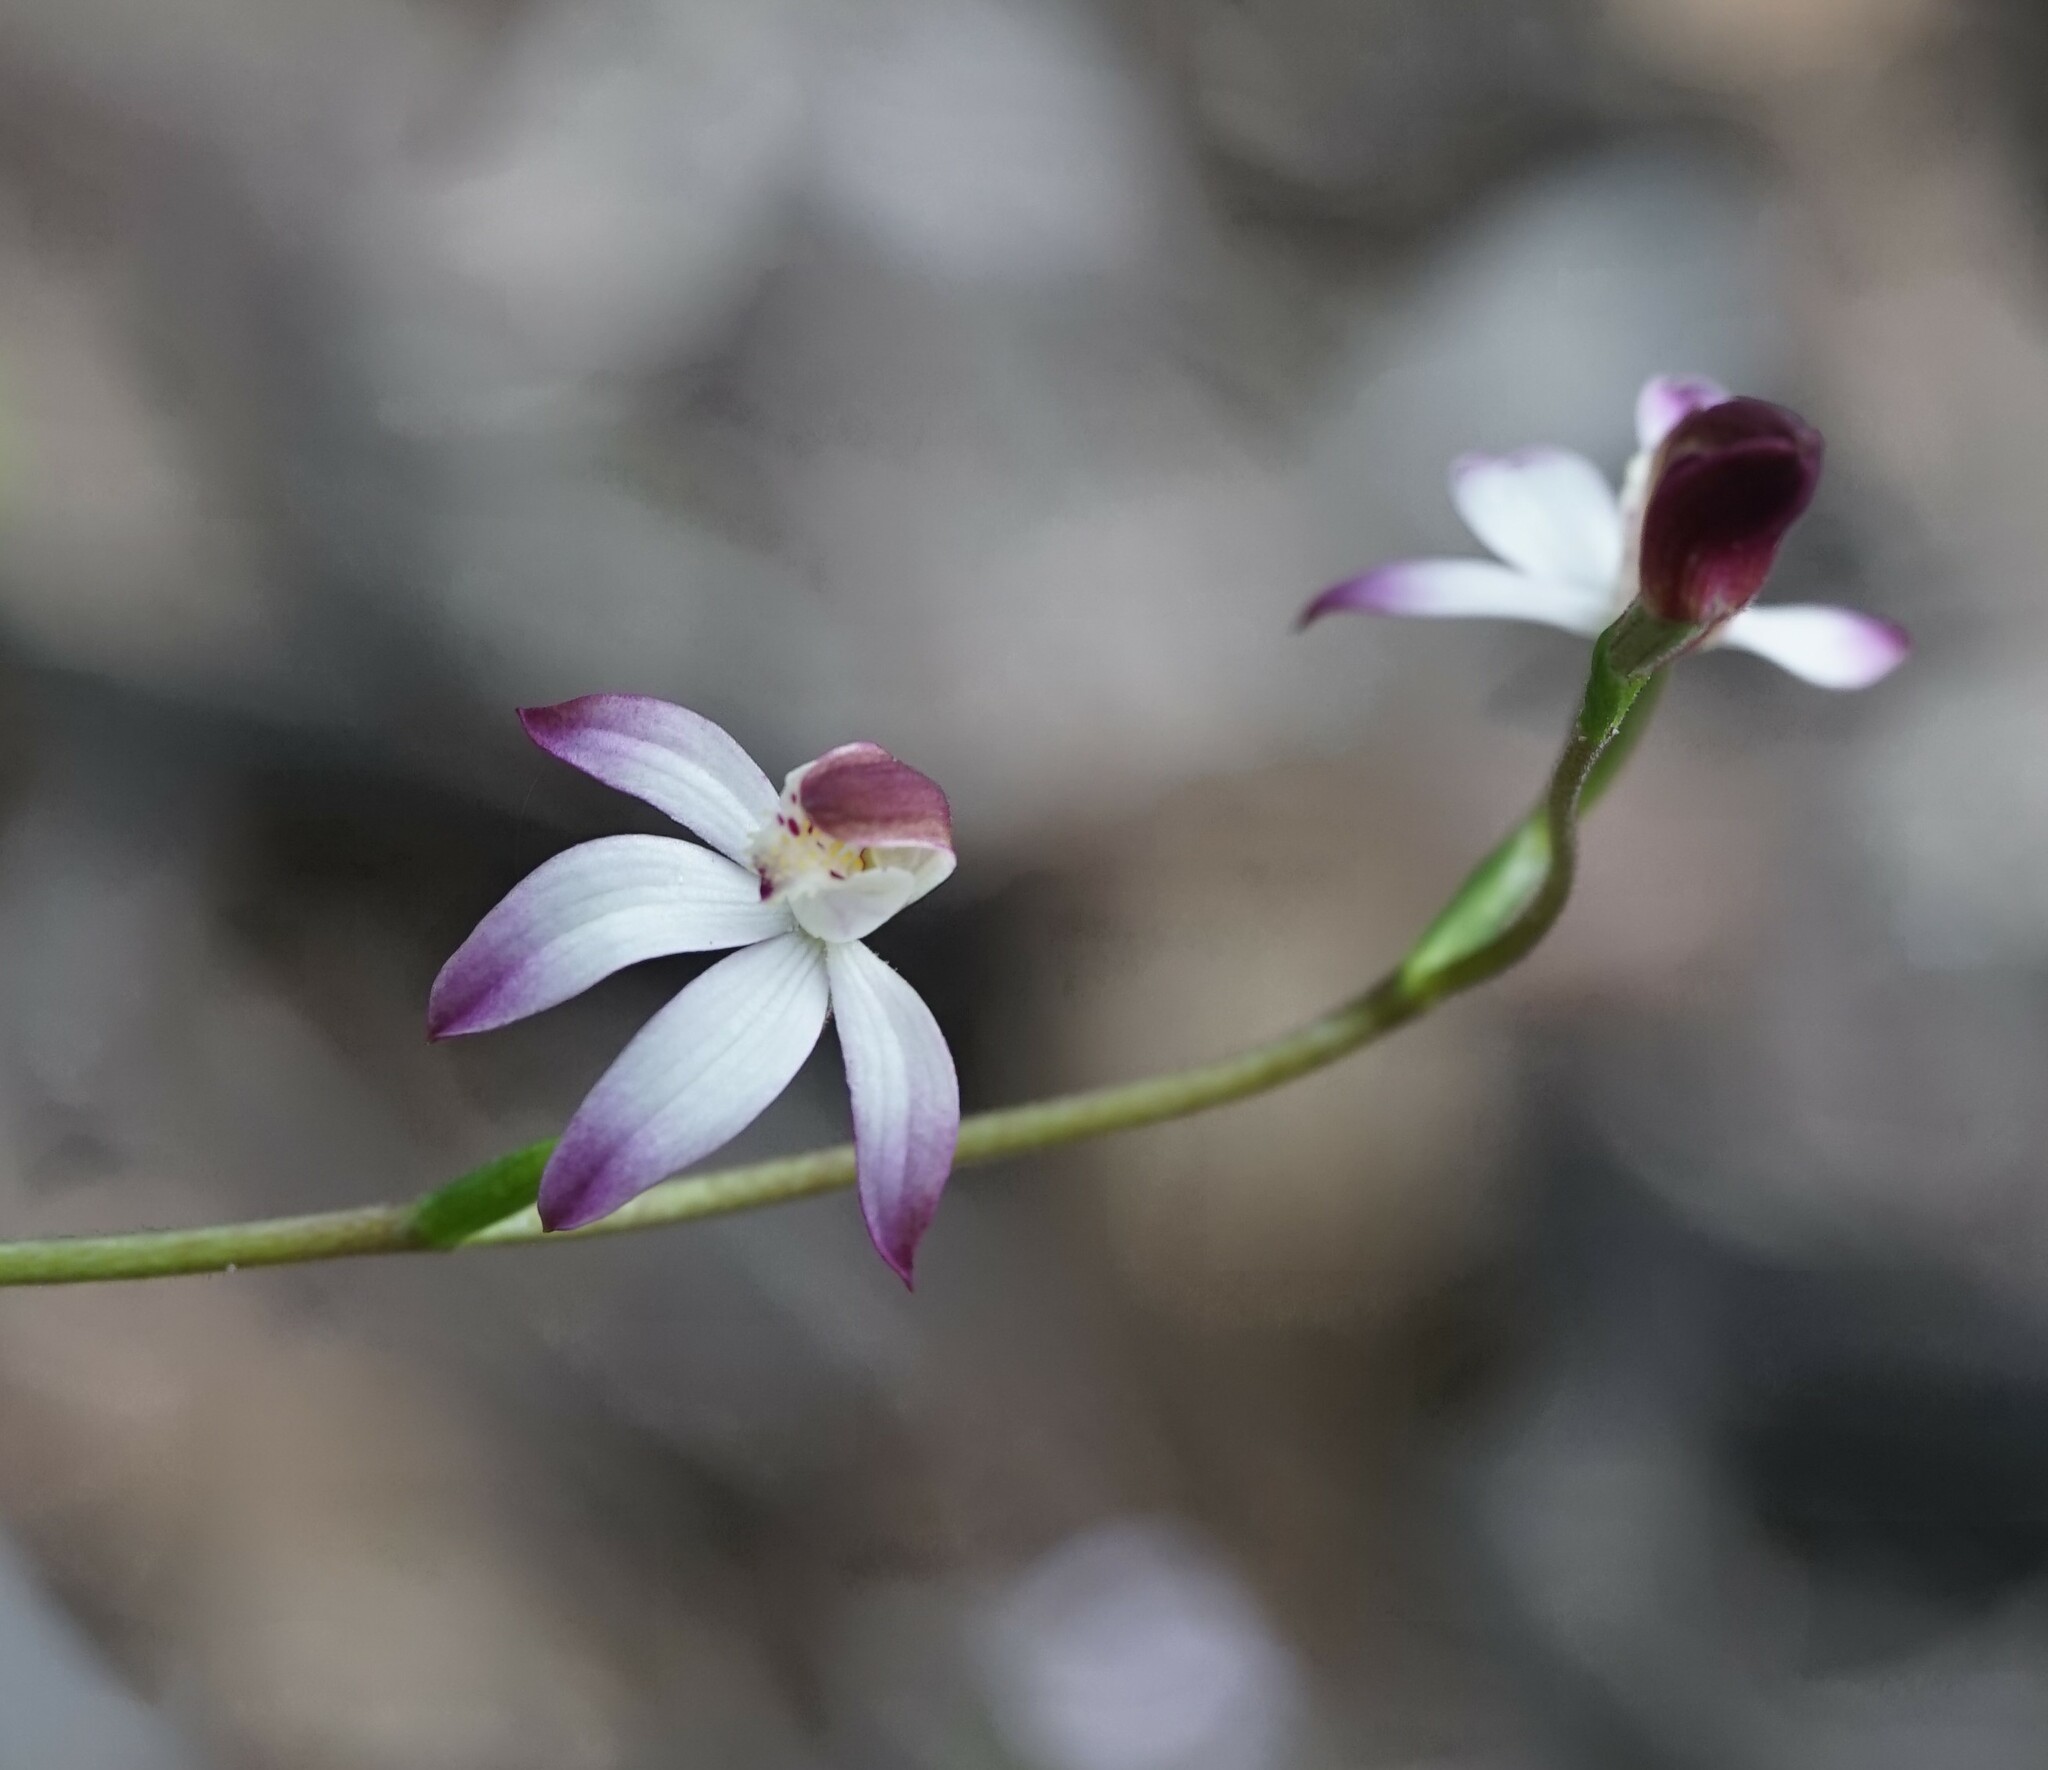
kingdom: Plantae
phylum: Tracheophyta
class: Liliopsida
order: Asparagales
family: Orchidaceae
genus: Caladenia
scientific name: Caladenia moschata
